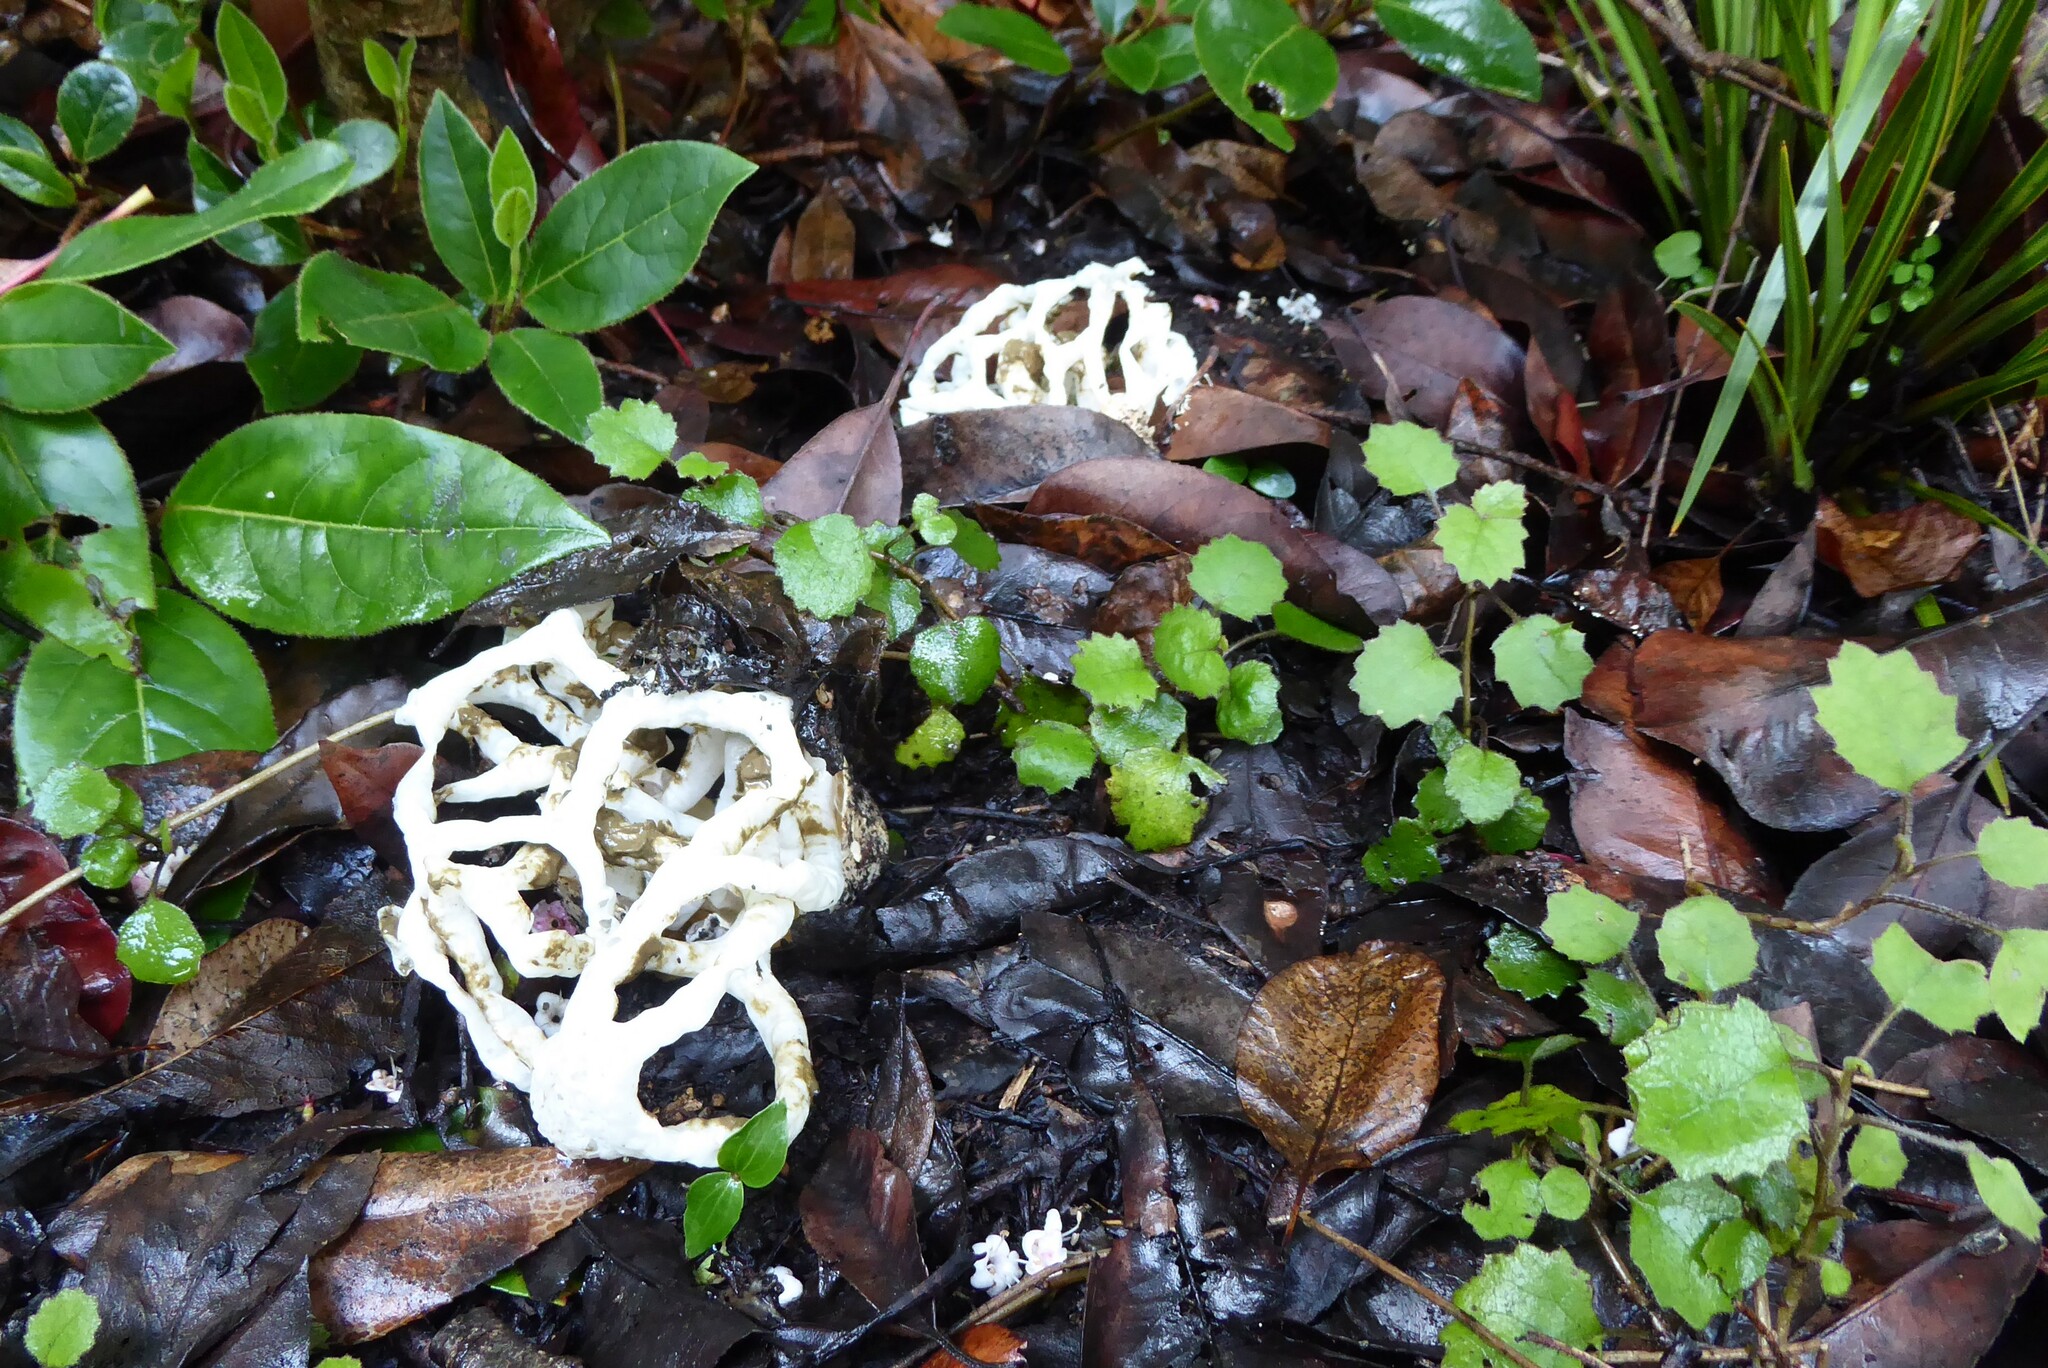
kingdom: Fungi
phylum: Basidiomycota
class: Agaricomycetes
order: Phallales
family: Phallaceae
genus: Ileodictyon
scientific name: Ileodictyon cibarium
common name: Basket fungus
